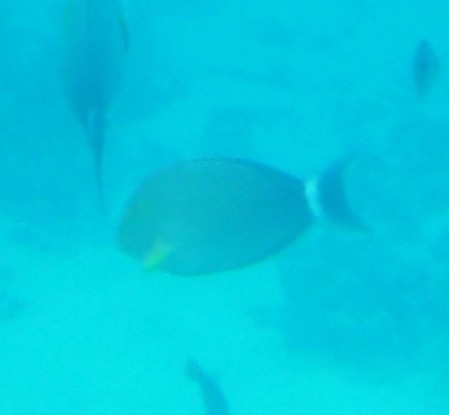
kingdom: Animalia
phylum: Chordata
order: Perciformes
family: Acanthuridae
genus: Acanthurus
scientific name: Acanthurus xanthopterus
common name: Cuvier's surgeonfish
